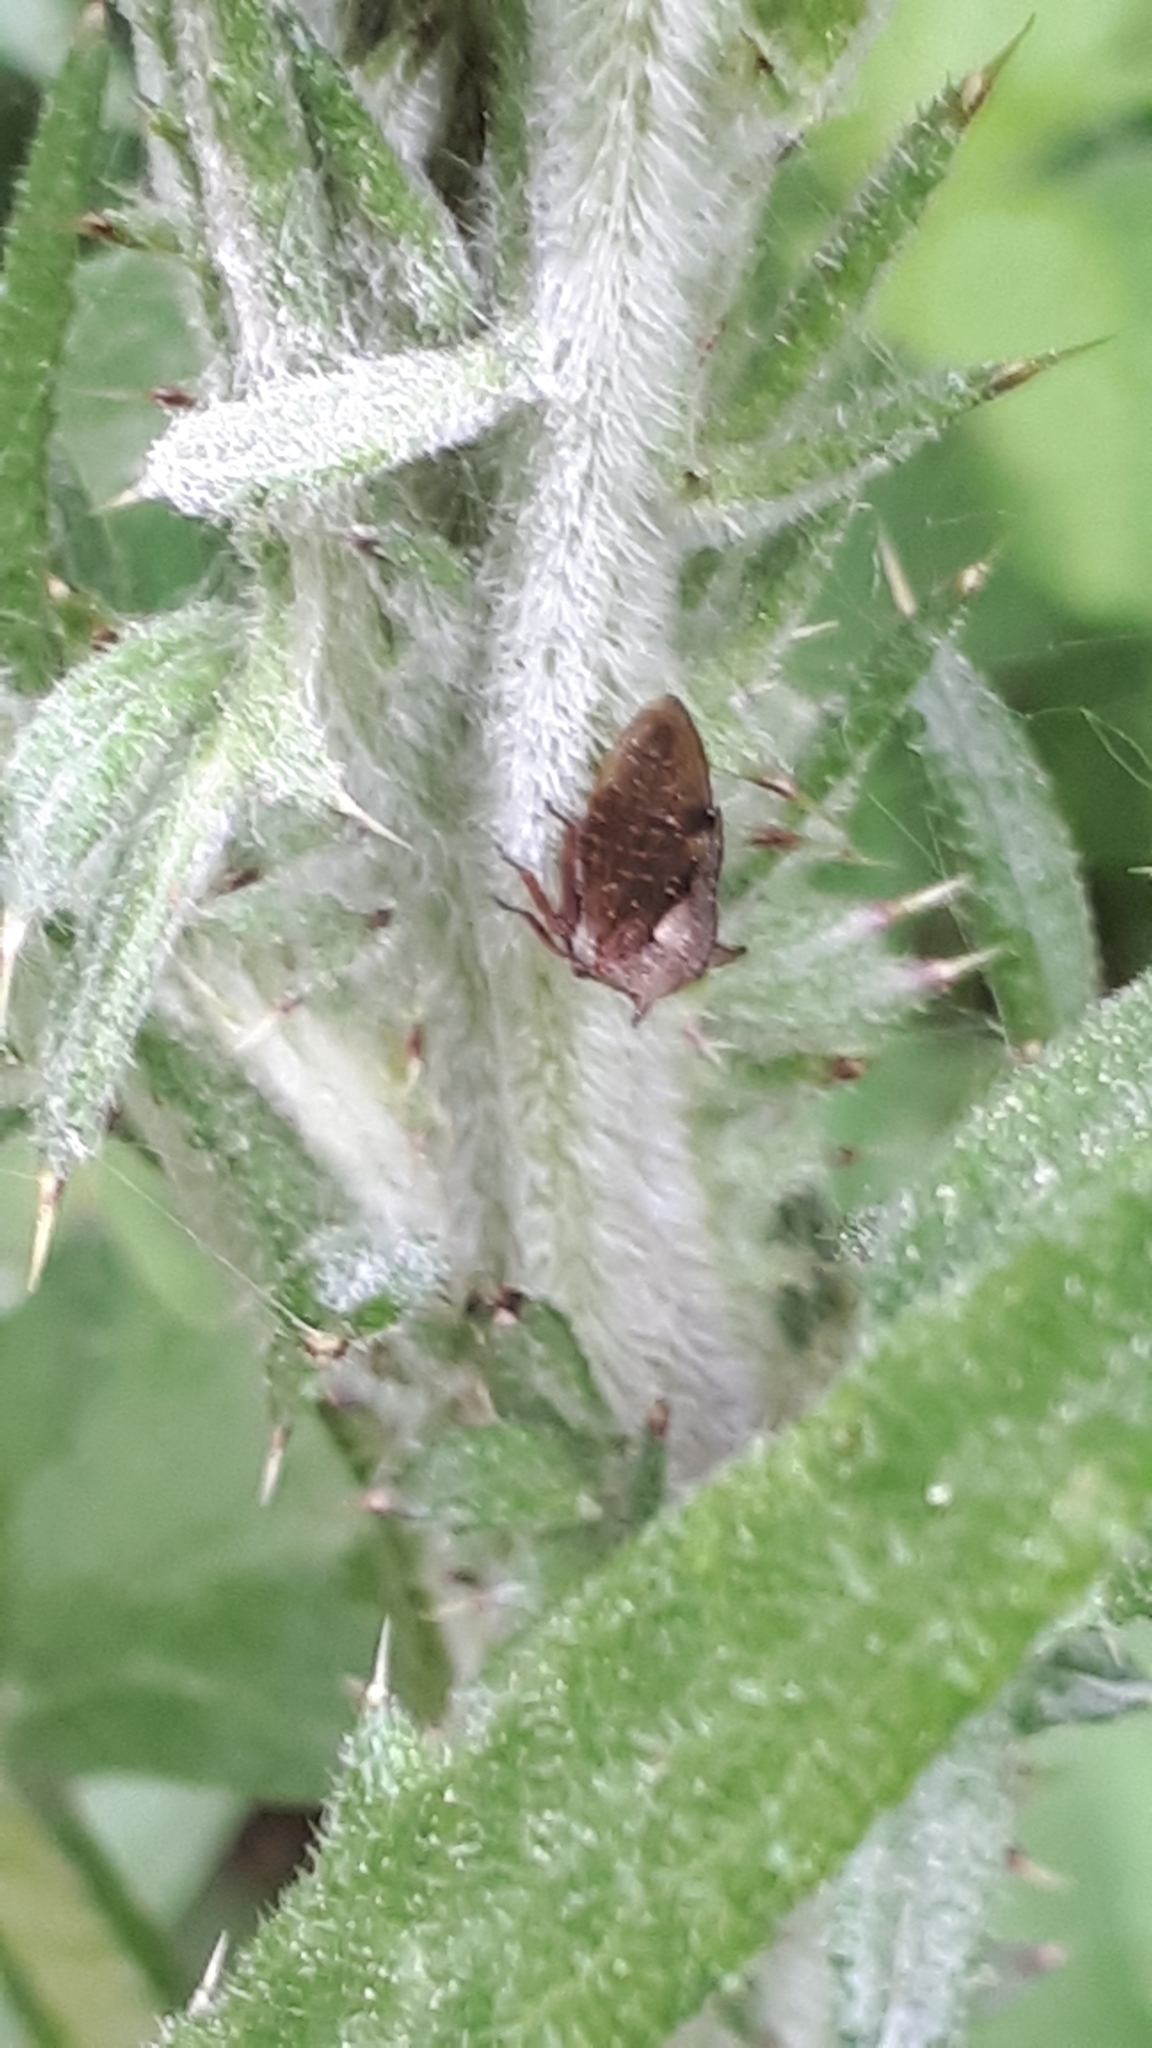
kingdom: Animalia
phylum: Arthropoda
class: Insecta
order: Hemiptera
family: Membracidae
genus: Centrotus
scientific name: Centrotus cornuta
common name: Treehopper
